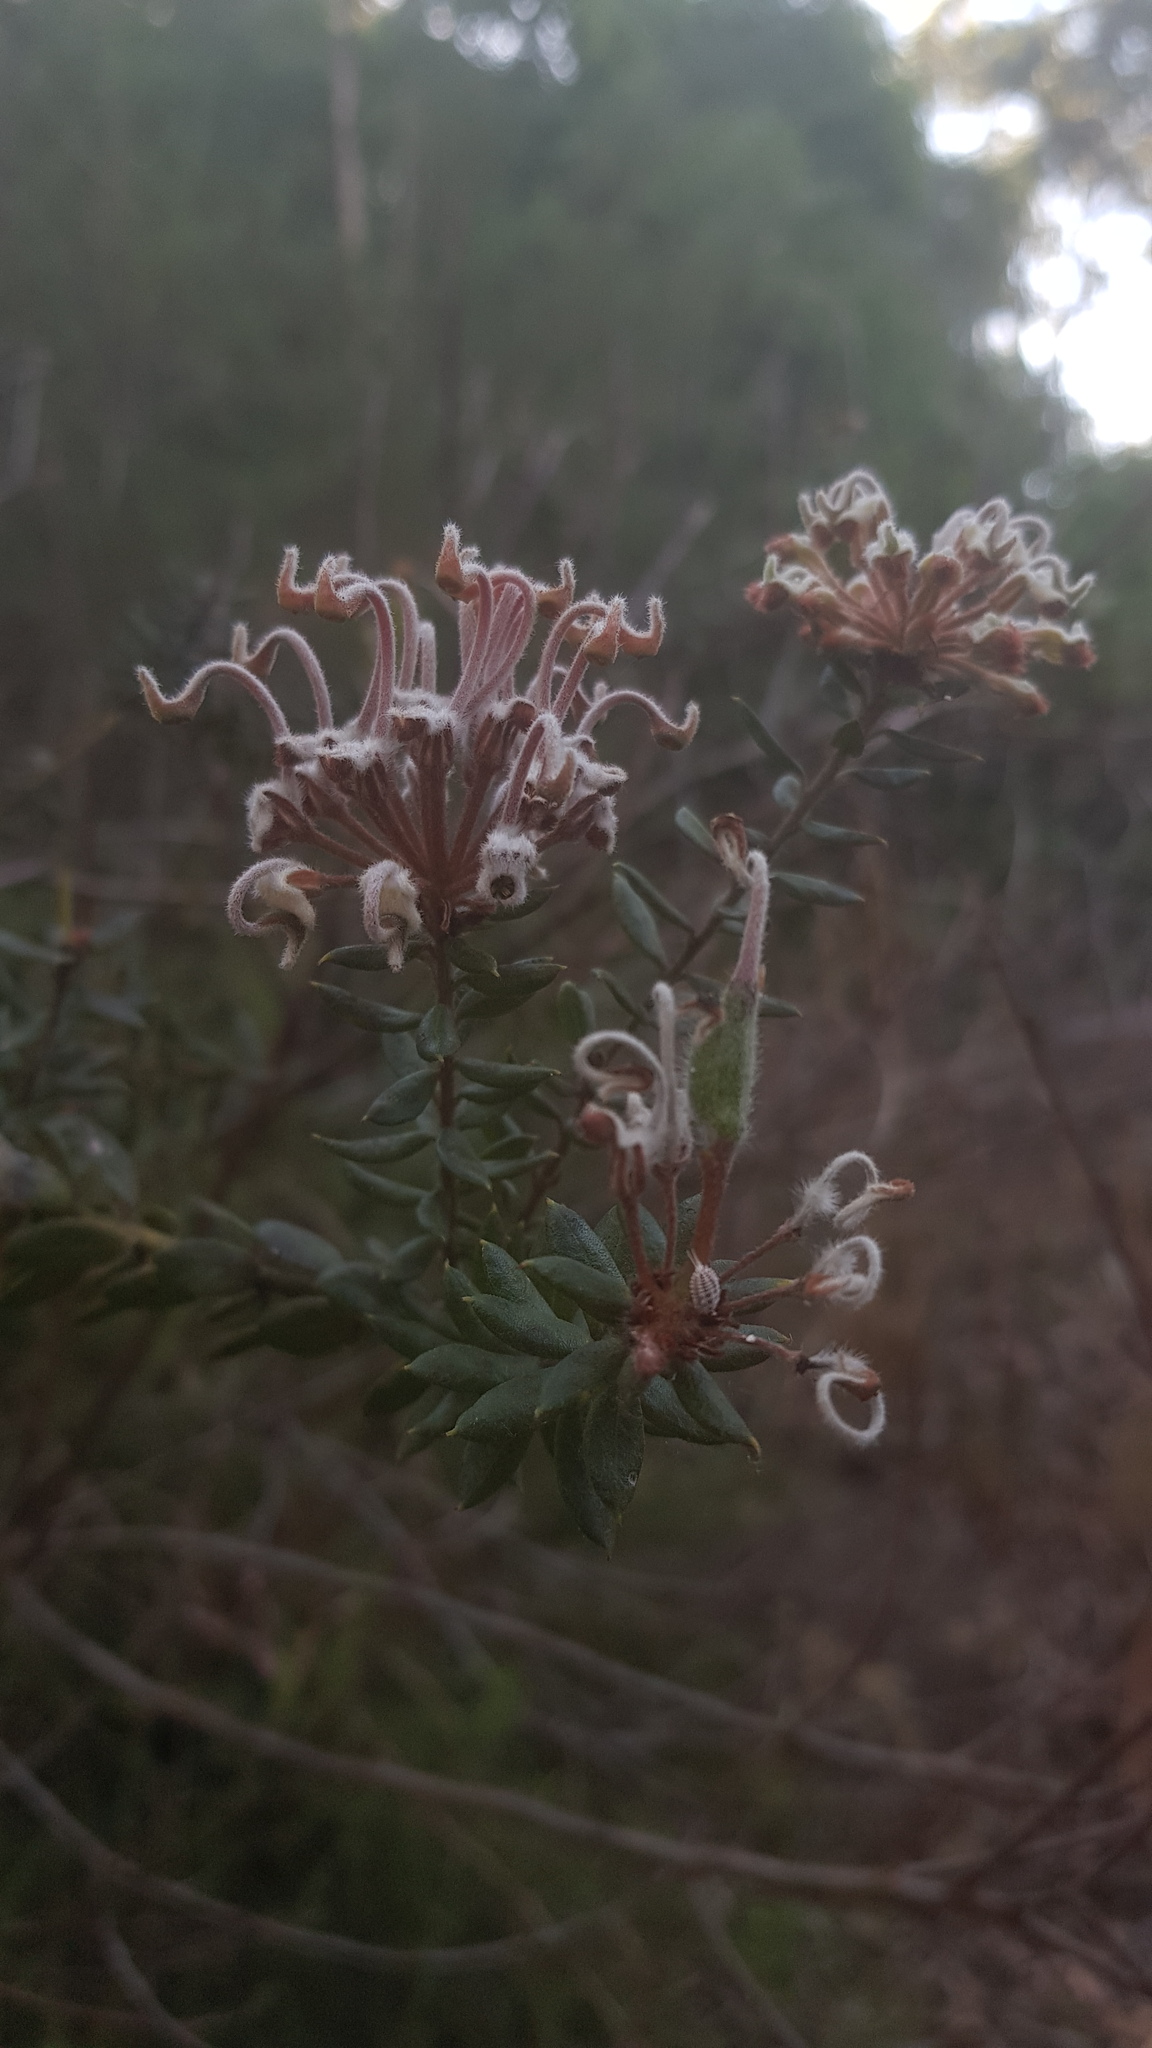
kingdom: Plantae
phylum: Tracheophyta
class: Magnoliopsida
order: Proteales
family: Proteaceae
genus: Grevillea
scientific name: Grevillea buxifolia
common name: Grey spiderflower
